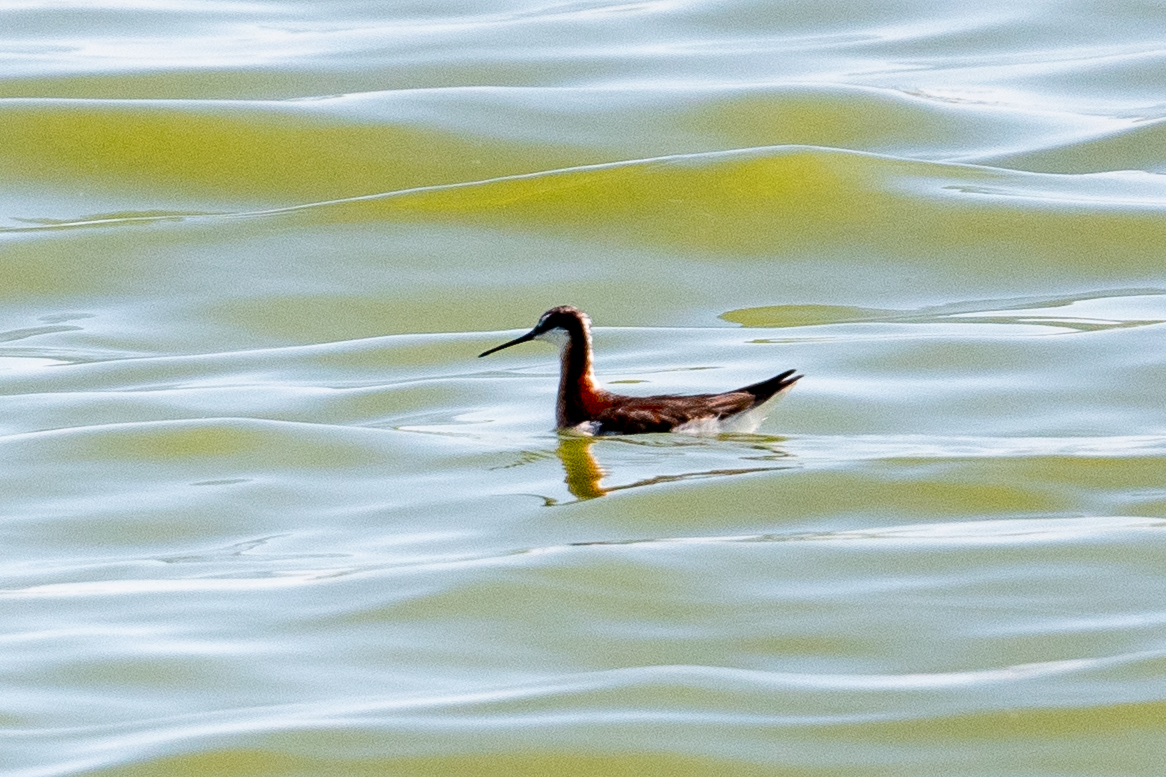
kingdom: Animalia
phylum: Chordata
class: Aves
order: Charadriiformes
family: Scolopacidae
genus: Phalaropus
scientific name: Phalaropus tricolor
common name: Wilson's phalarope
